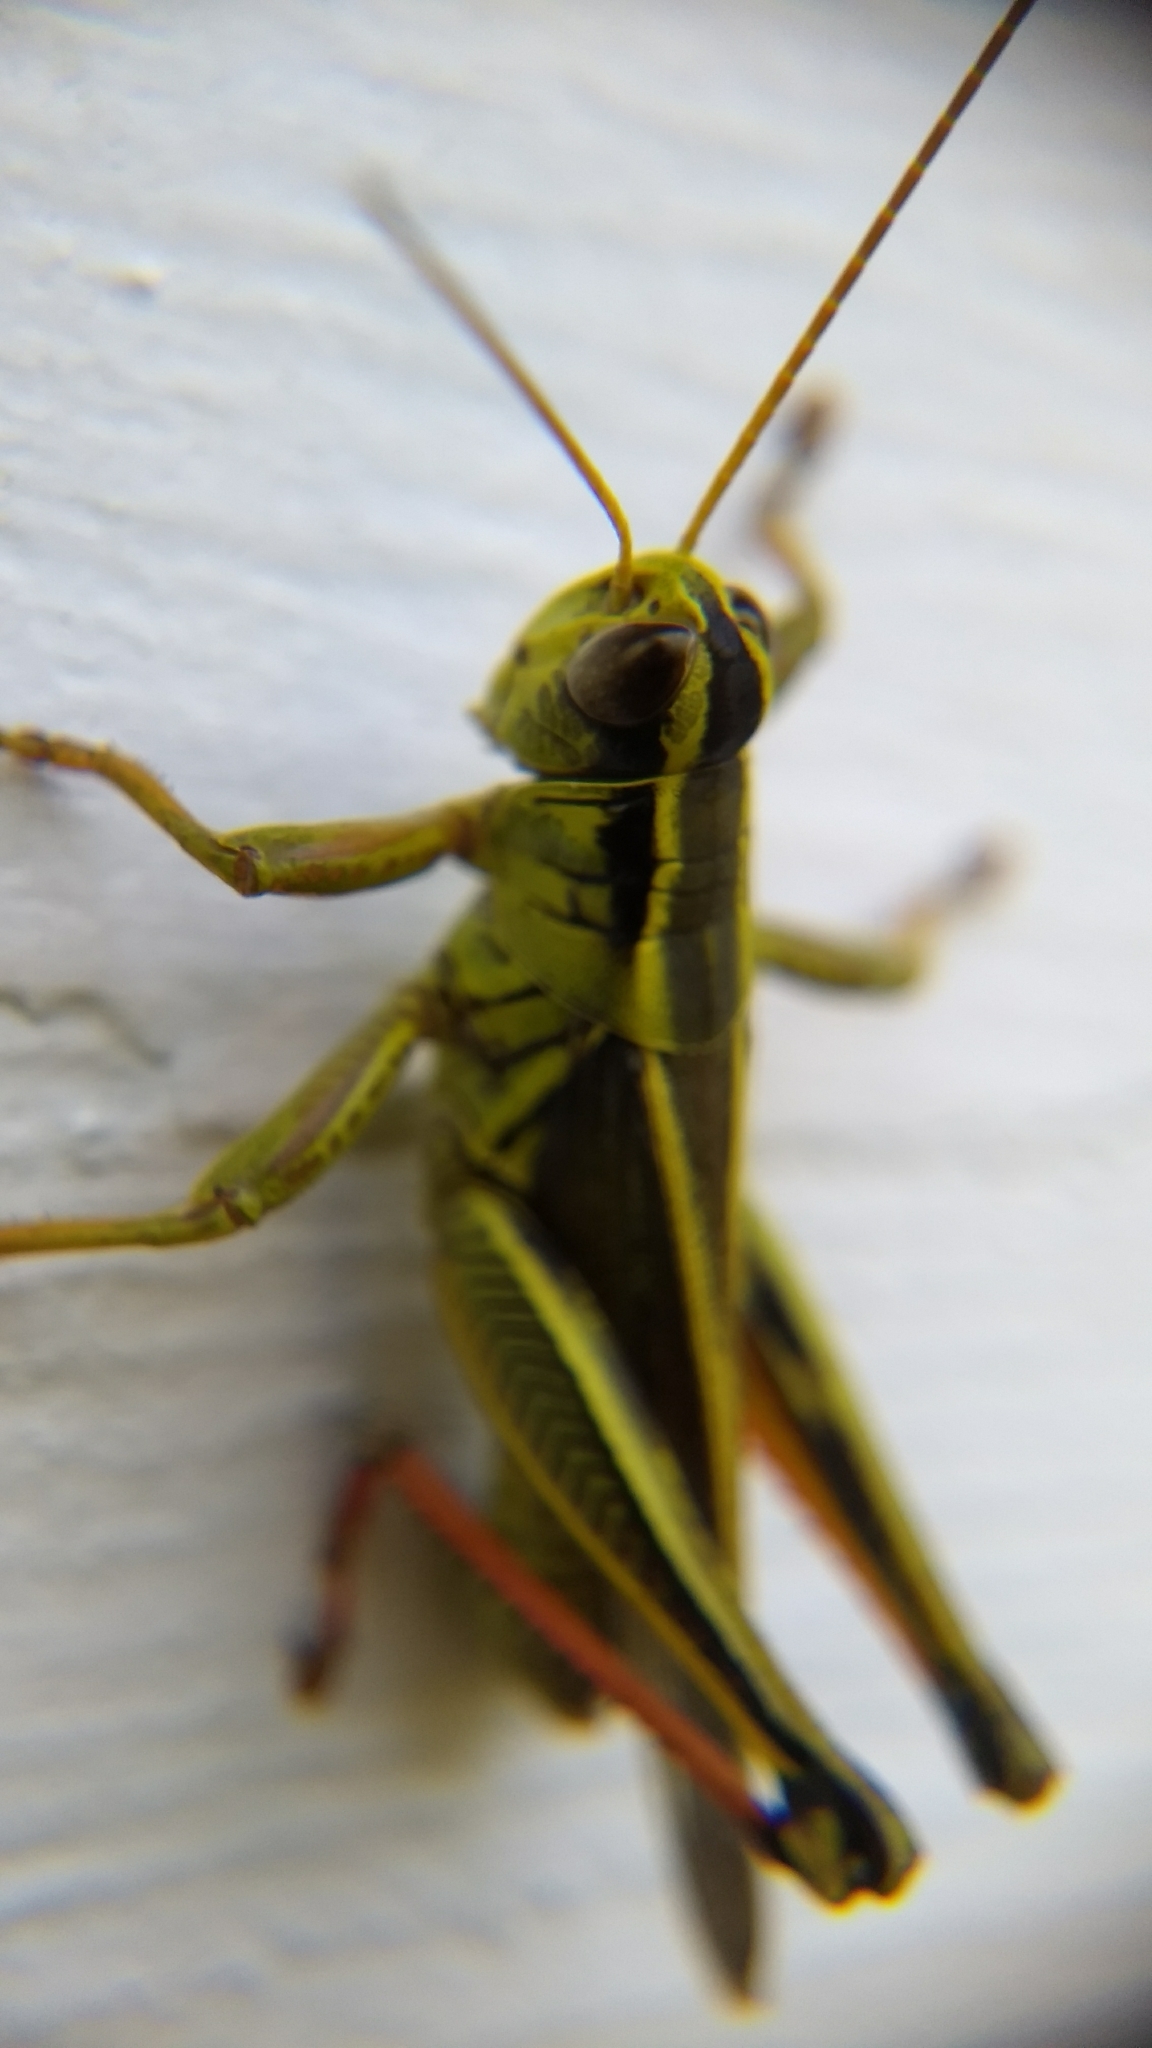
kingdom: Animalia
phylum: Arthropoda
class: Insecta
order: Orthoptera
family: Acrididae
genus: Melanoplus
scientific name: Melanoplus bivittatus
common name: Two-striped grasshopper
